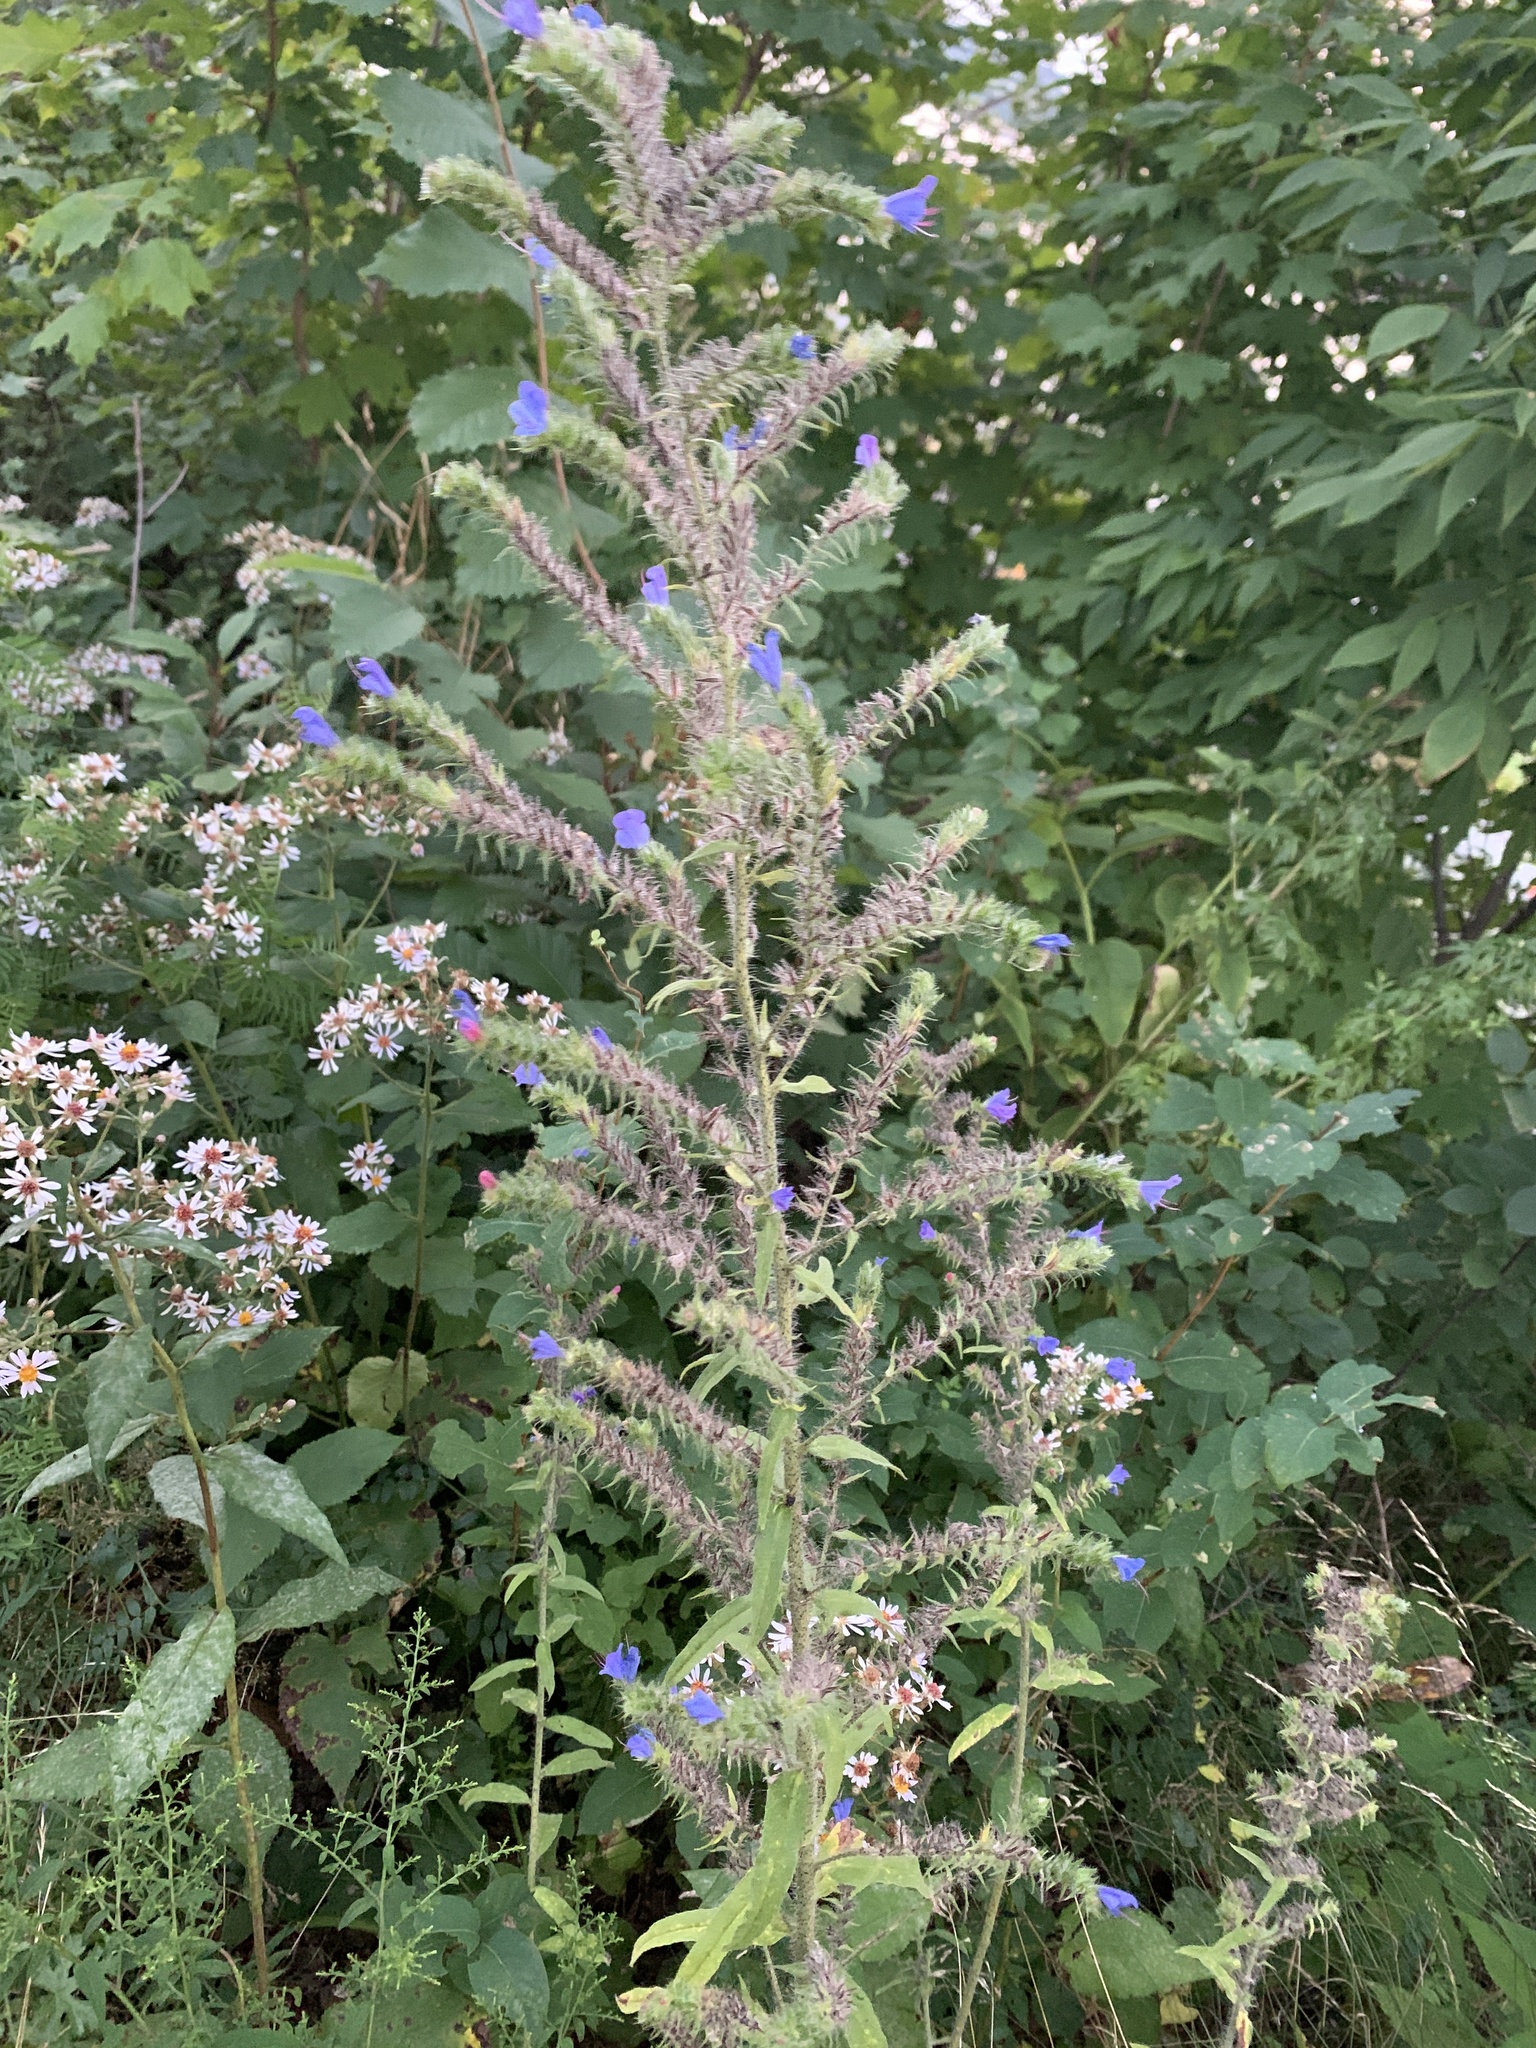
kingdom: Plantae
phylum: Tracheophyta
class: Magnoliopsida
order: Asterales
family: Asteraceae
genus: Eurybia
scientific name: Eurybia macrophylla
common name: Big-leaved aster
